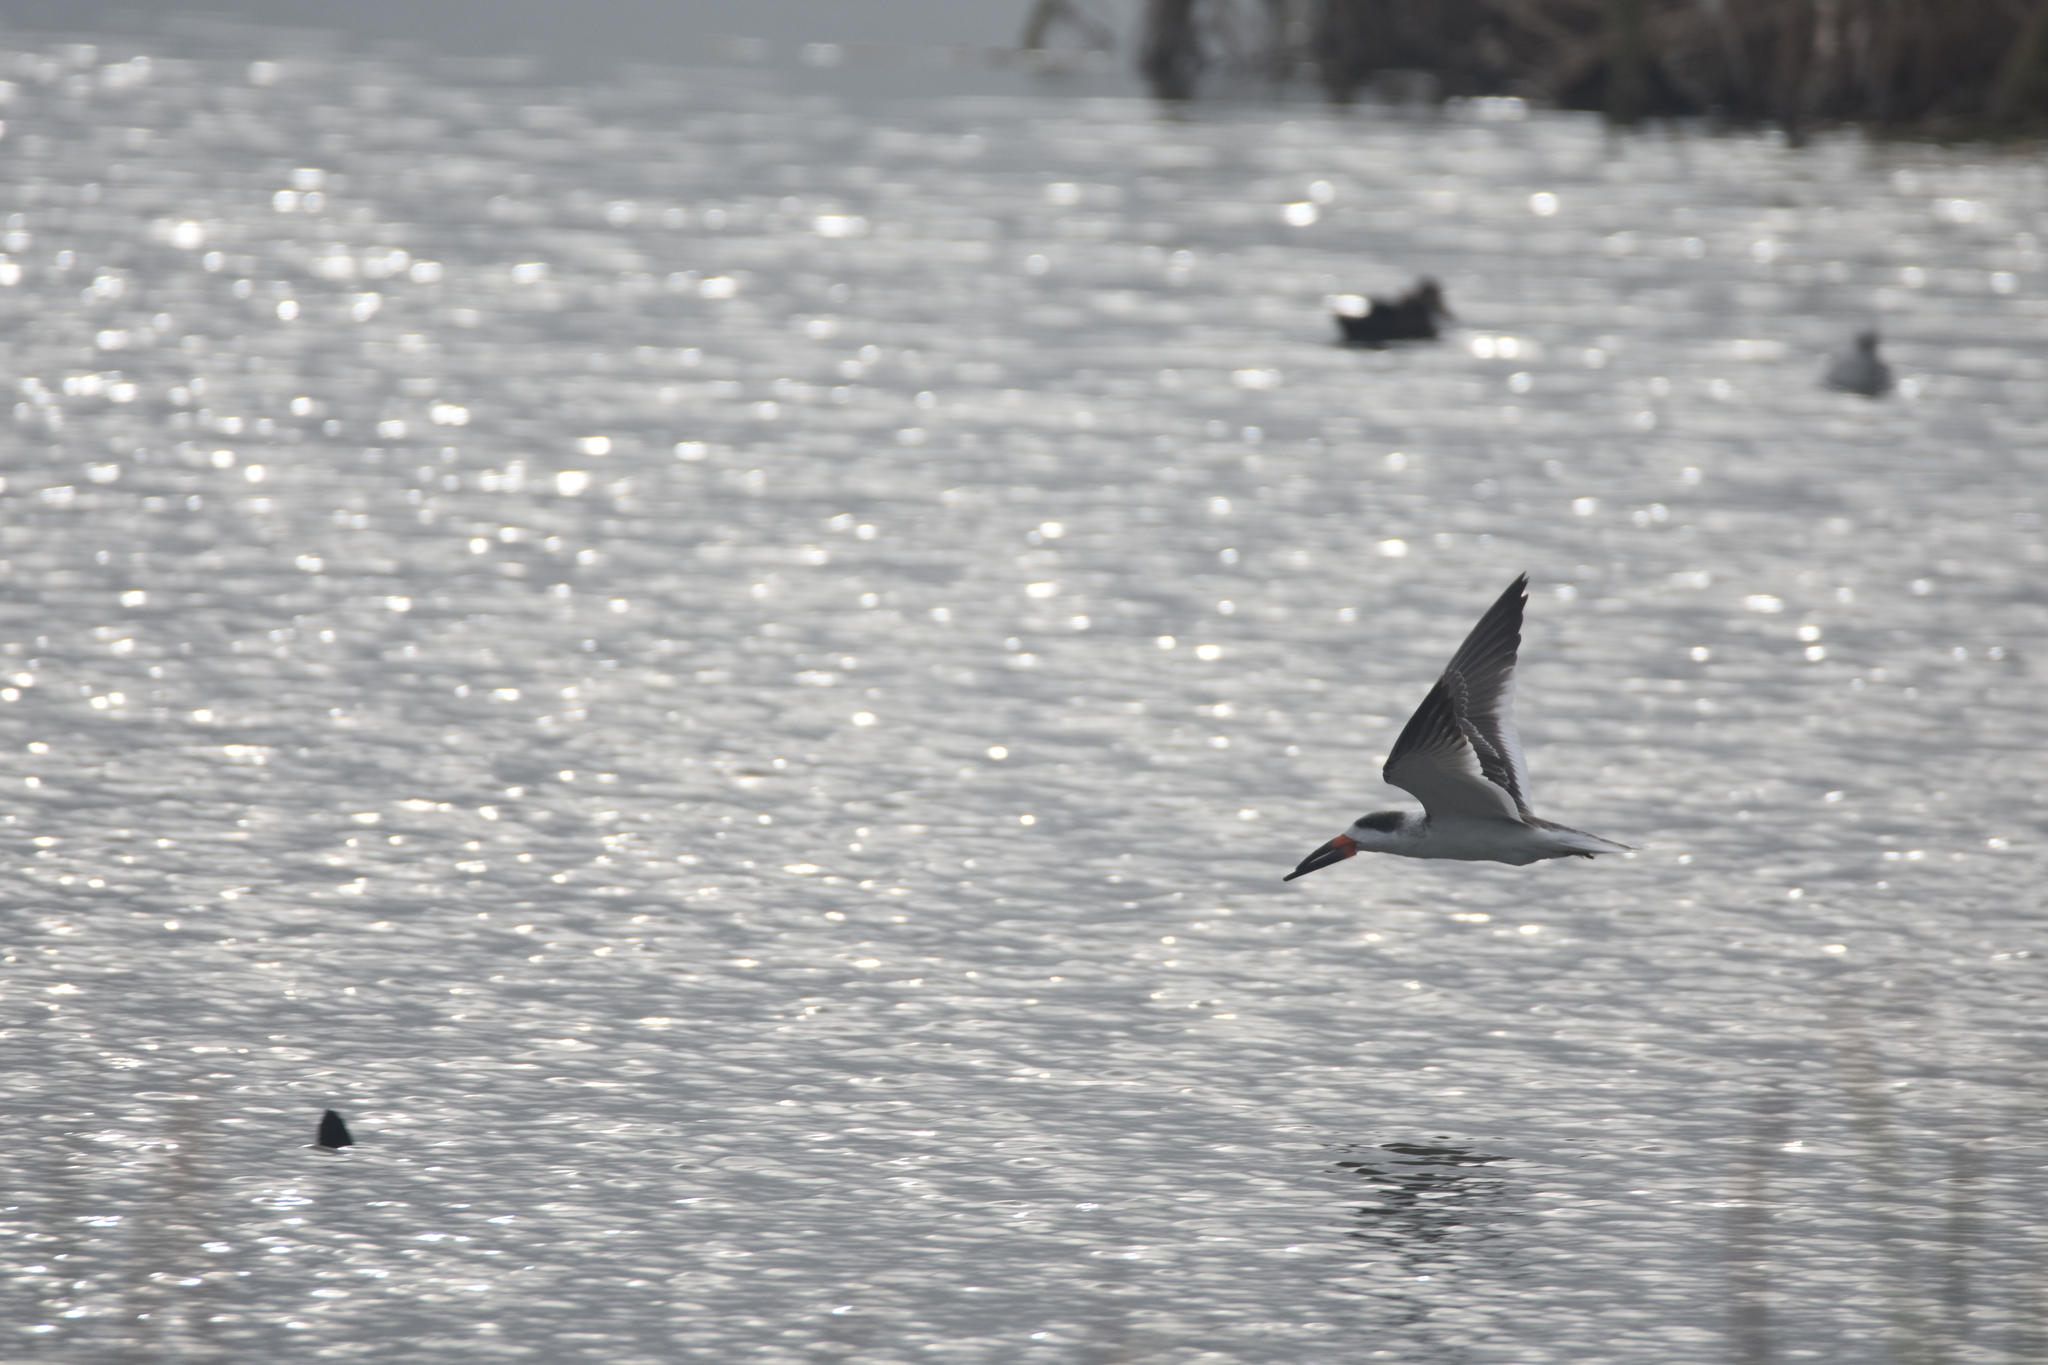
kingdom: Animalia
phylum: Chordata
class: Aves
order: Charadriiformes
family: Laridae
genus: Rynchops
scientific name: Rynchops niger
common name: Black skimmer
